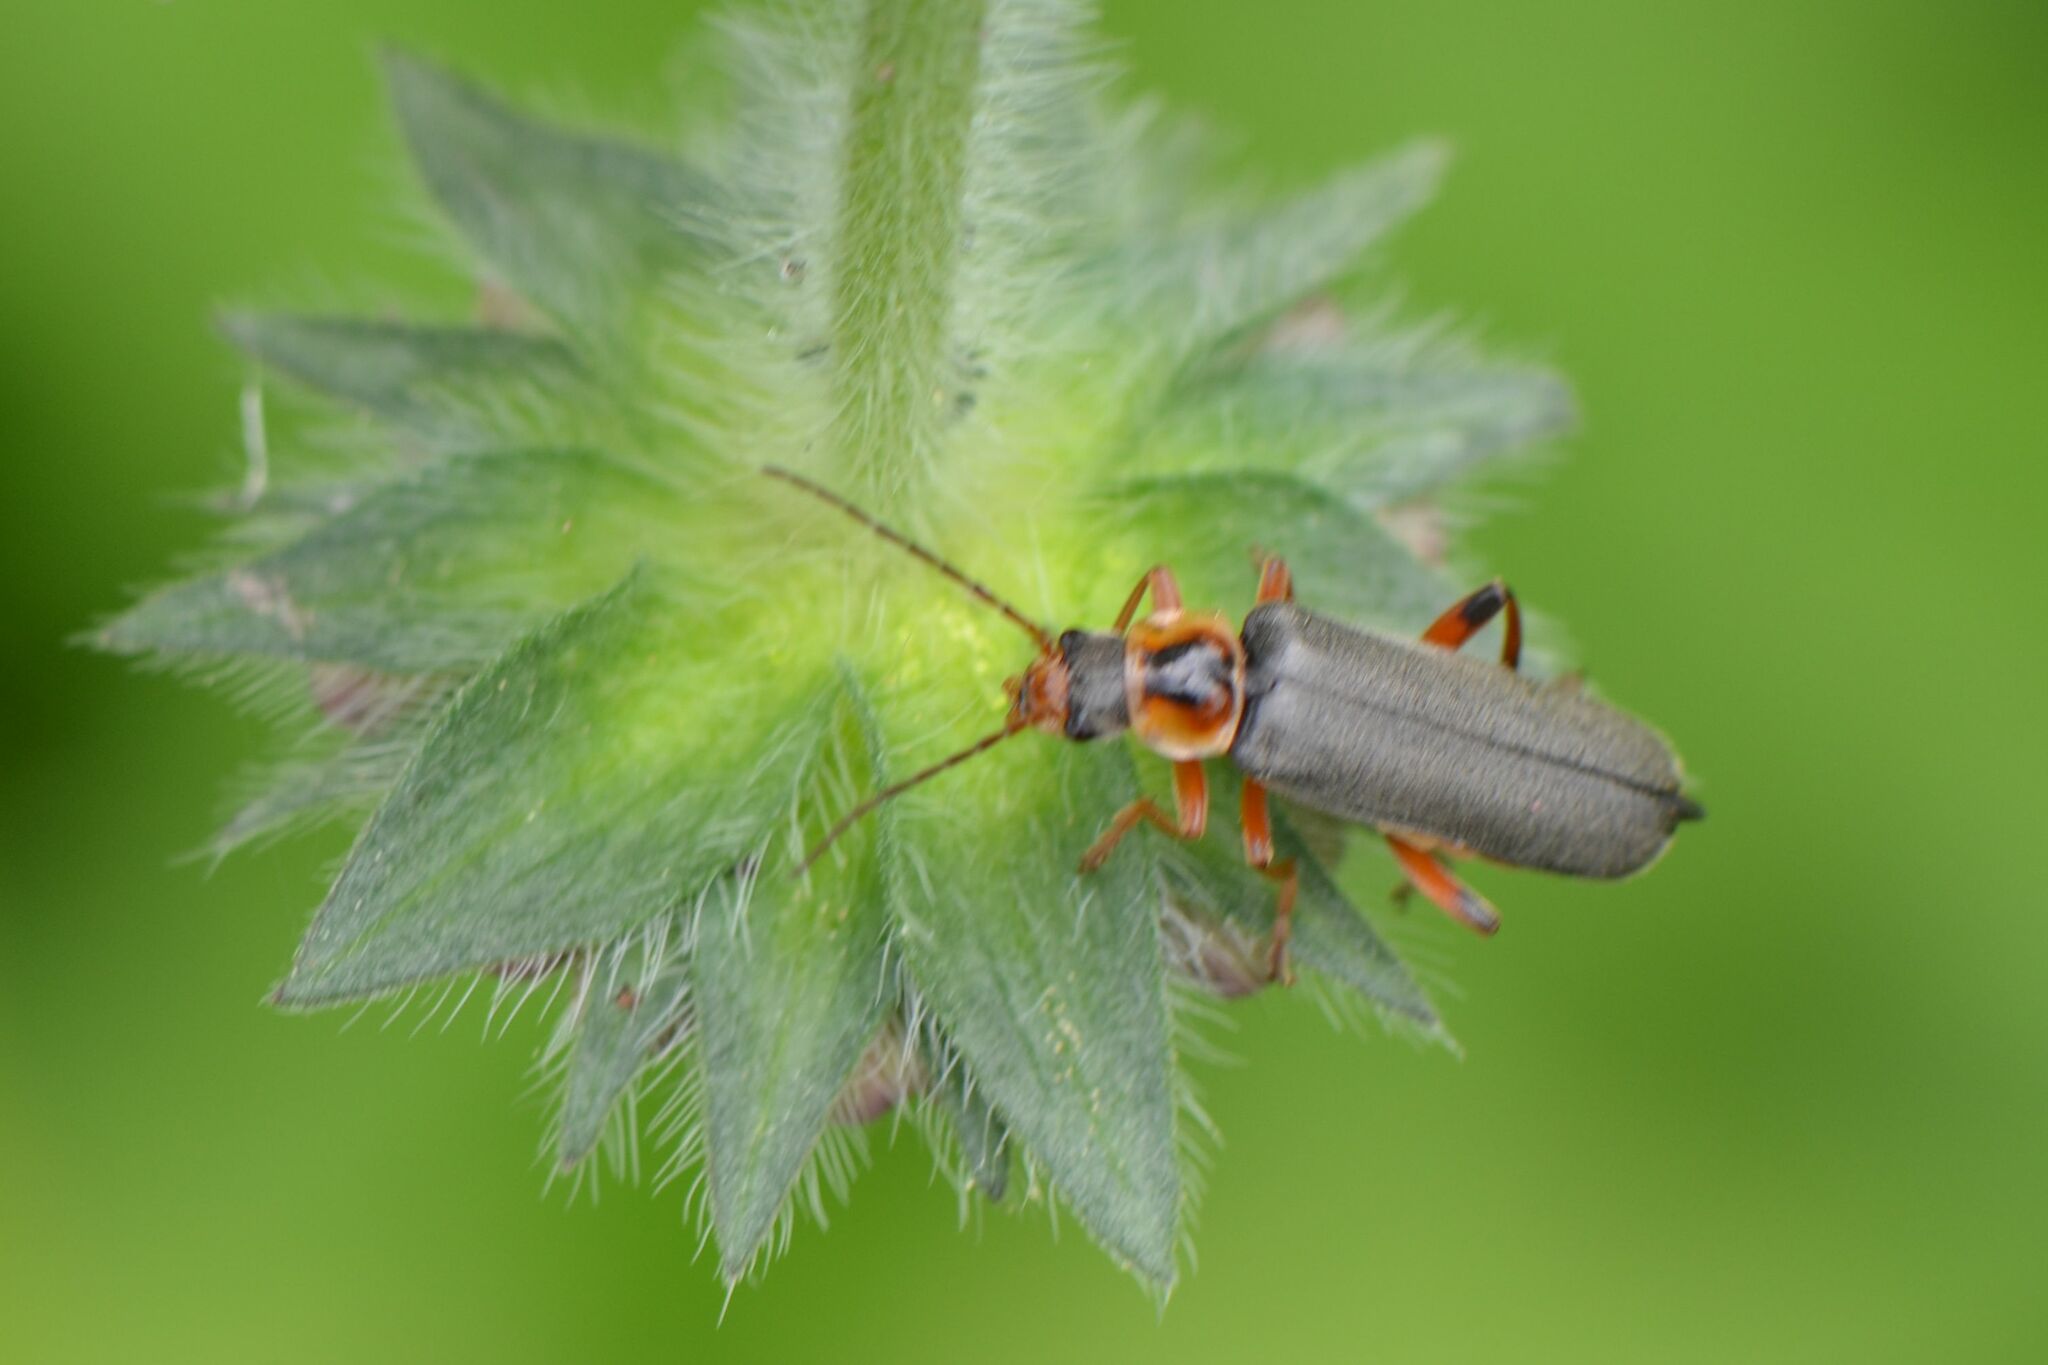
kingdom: Animalia
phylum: Arthropoda
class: Insecta
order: Coleoptera
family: Cantharidae
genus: Cantharis
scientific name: Cantharis nigricans
